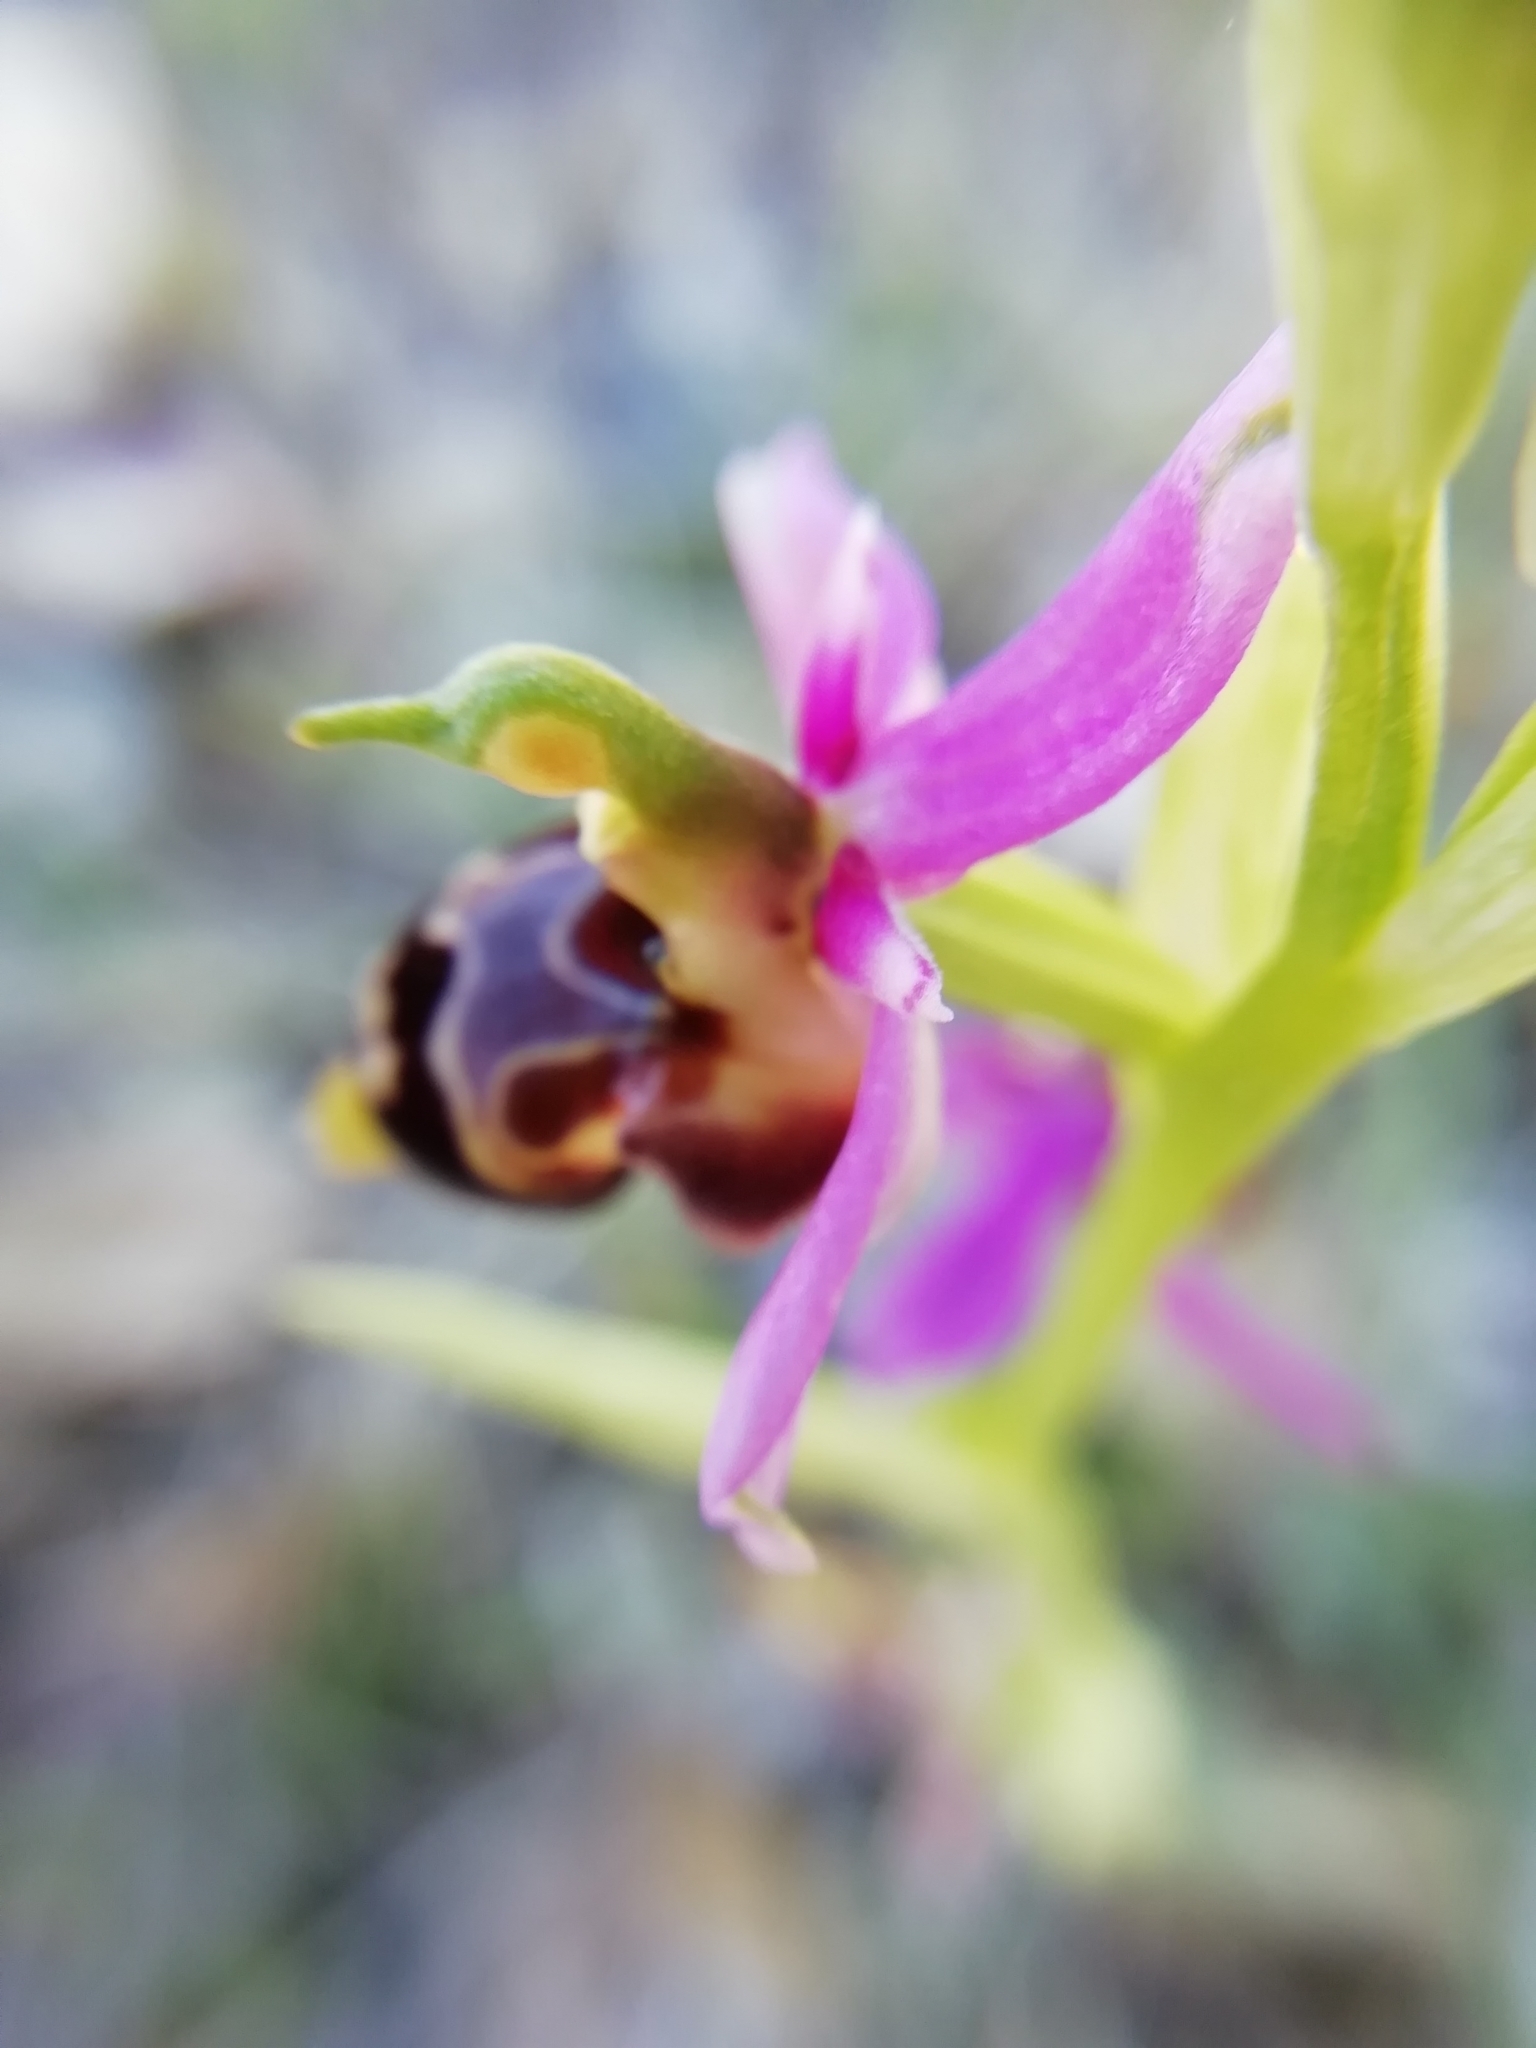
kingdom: Plantae
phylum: Tracheophyta
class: Liliopsida
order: Asparagales
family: Orchidaceae
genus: Ophrys
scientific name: Ophrys scolopax
